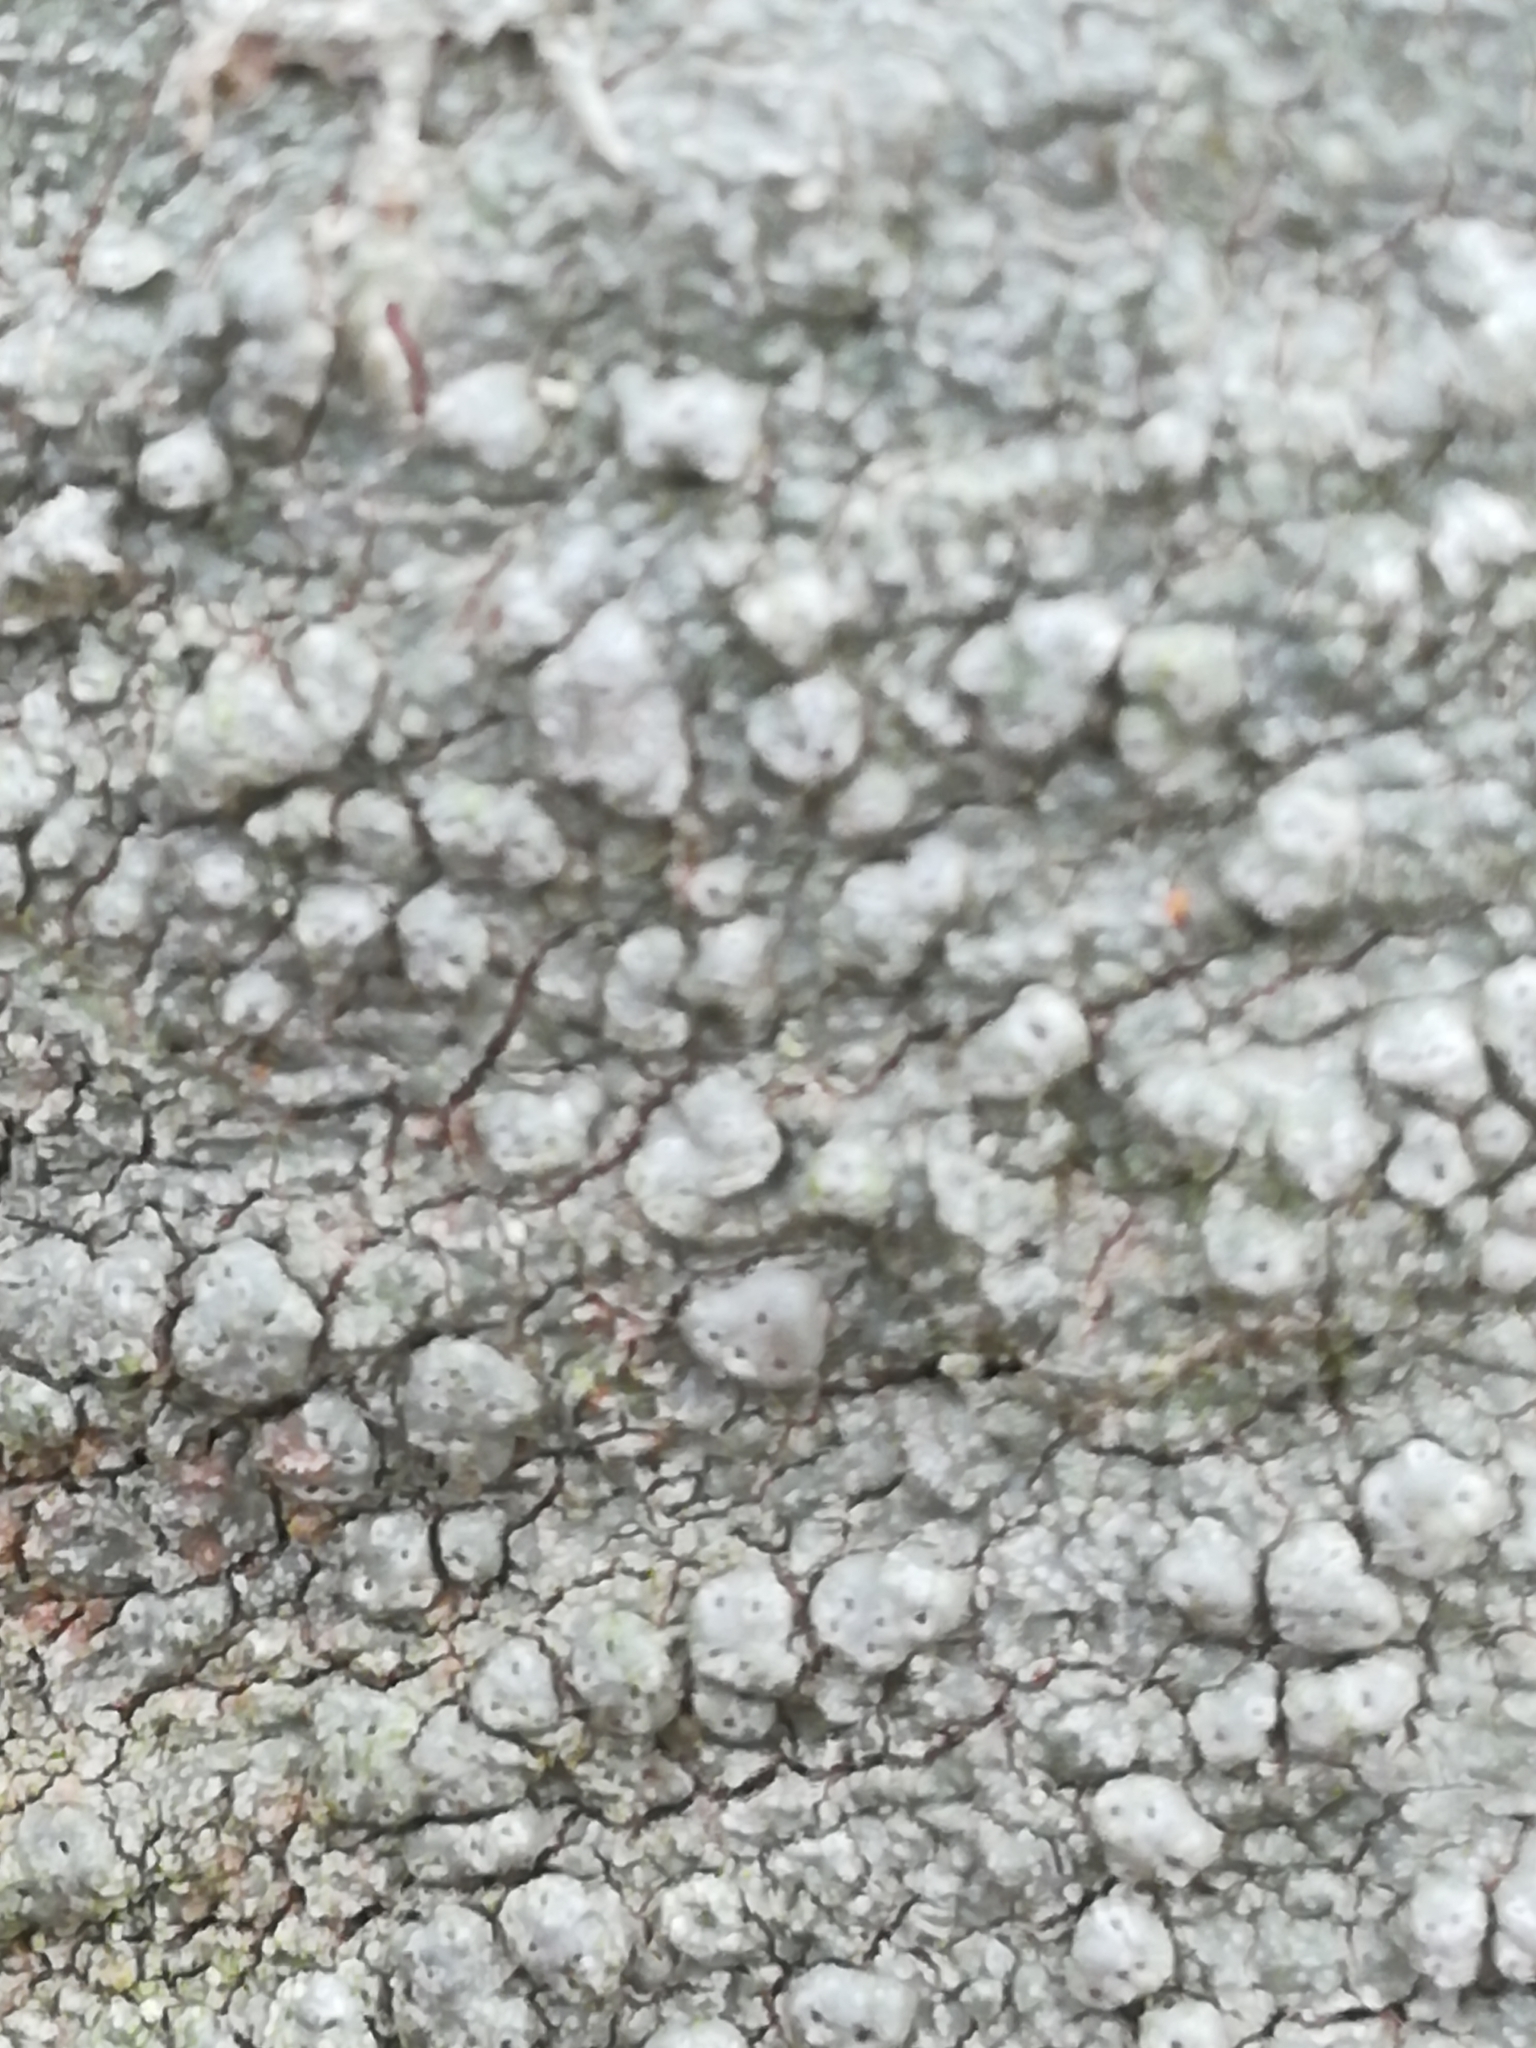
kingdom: Fungi
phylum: Ascomycota
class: Lecanoromycetes
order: Pertusariales
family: Pertusariaceae
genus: Pertusaria
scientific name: Pertusaria pertusa
